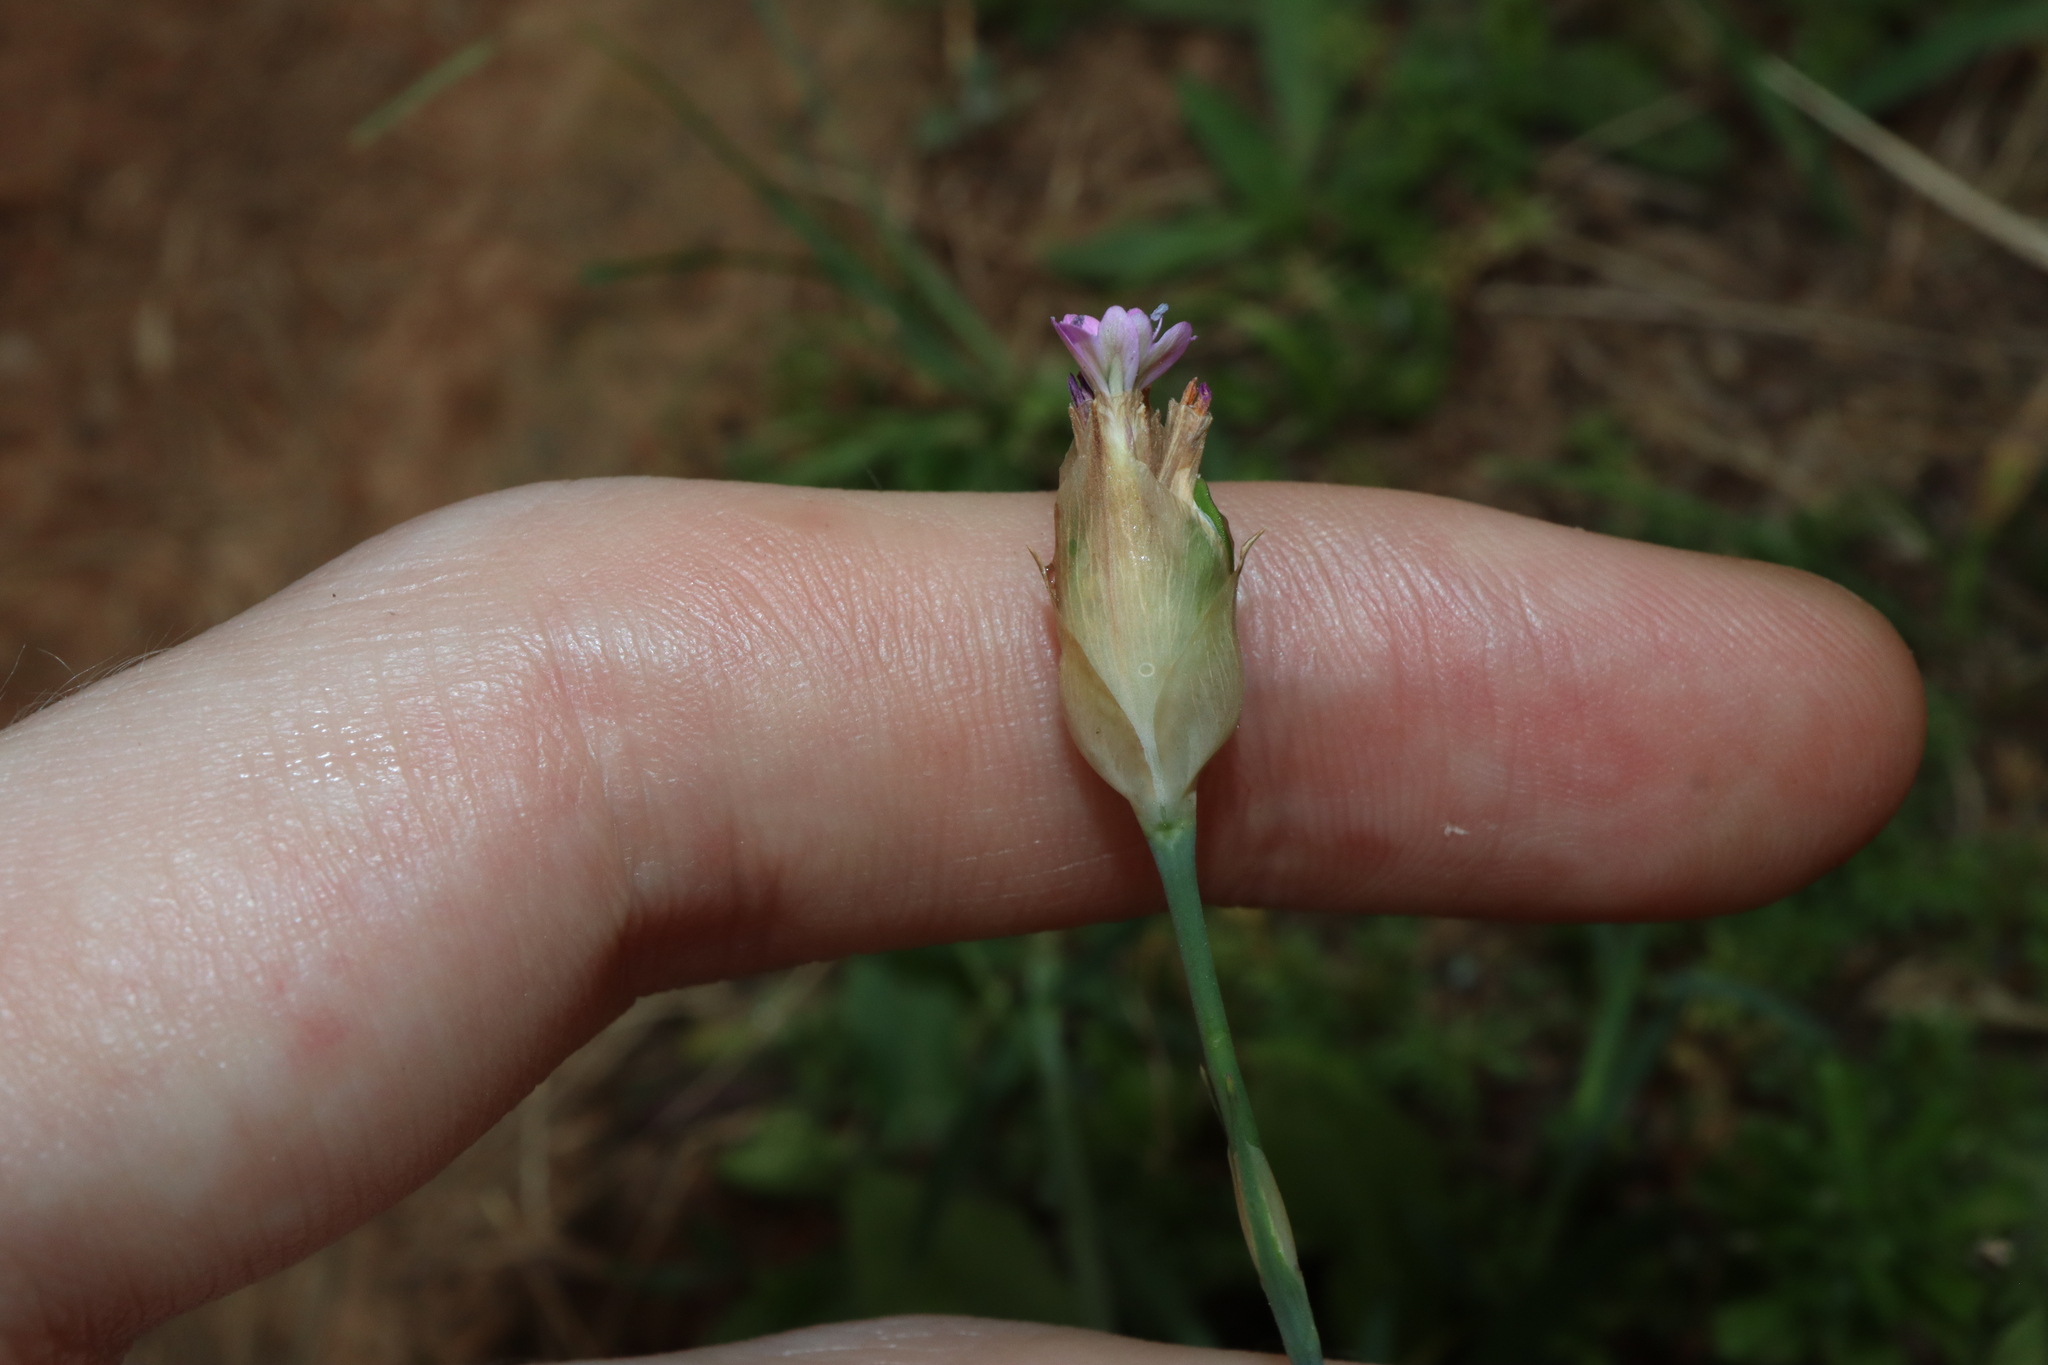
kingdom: Plantae
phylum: Tracheophyta
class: Magnoliopsida
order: Caryophyllales
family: Caryophyllaceae
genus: Petrorhagia
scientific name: Petrorhagia dubia
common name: Hairypink
